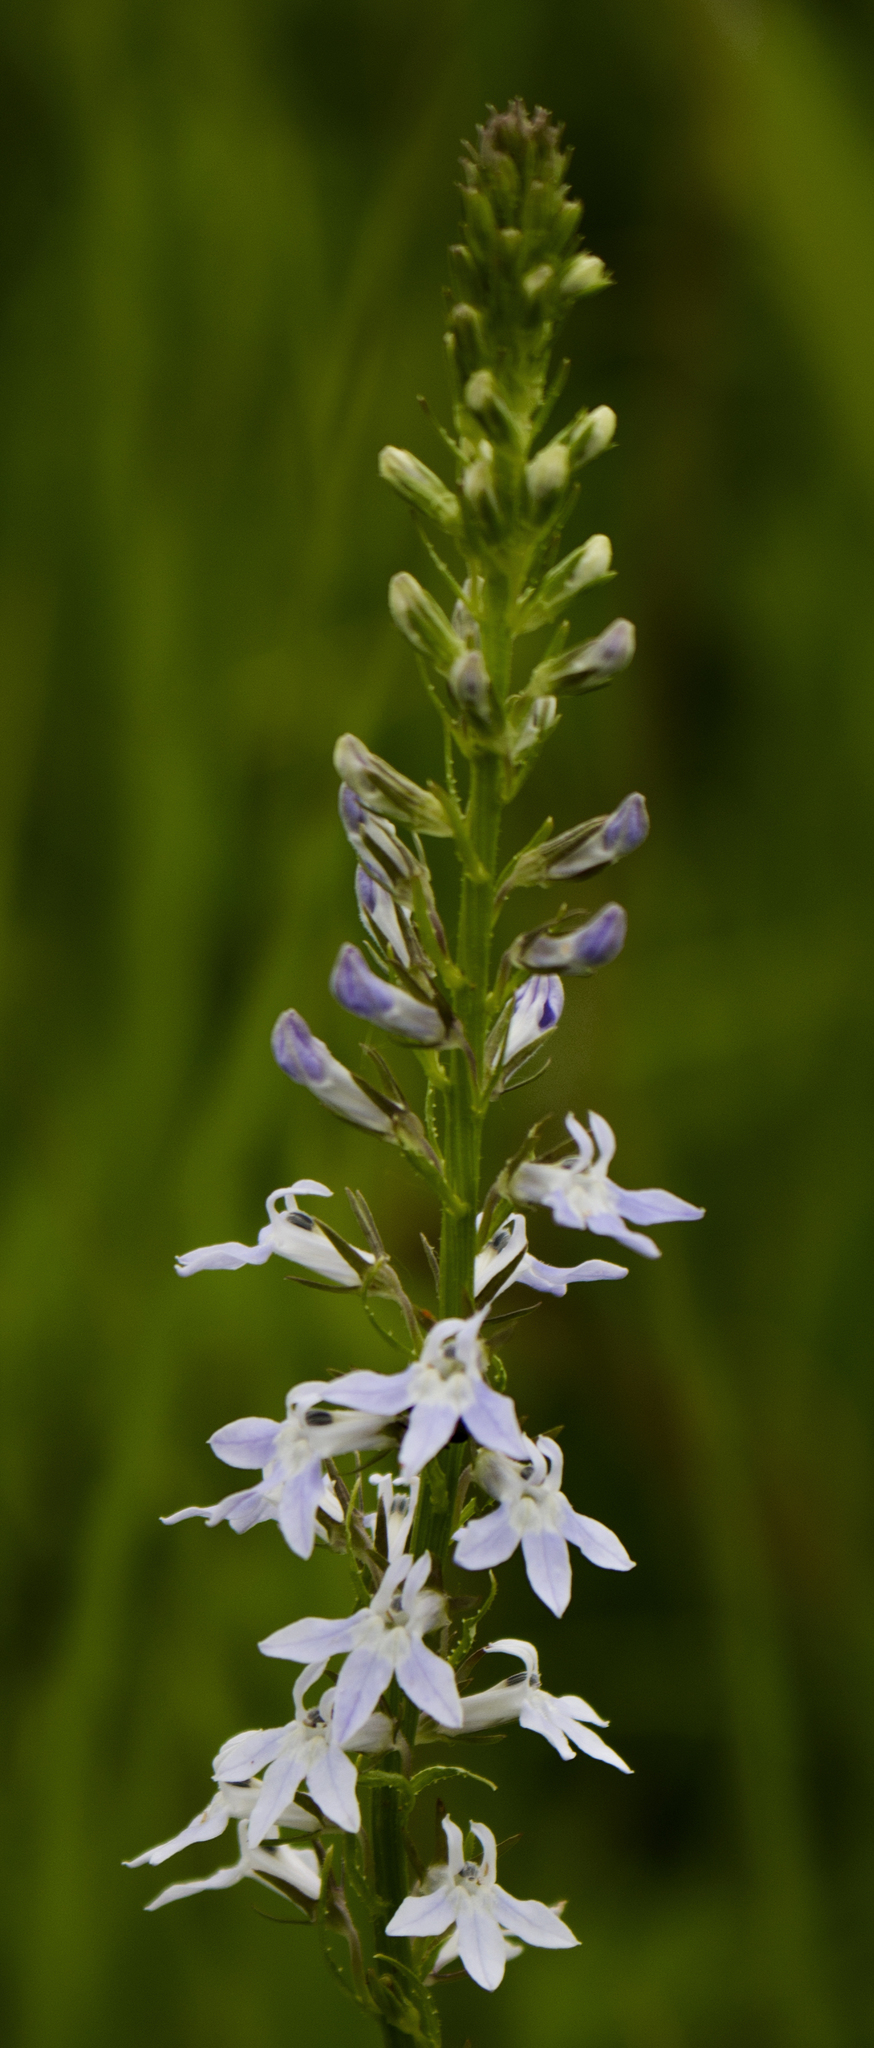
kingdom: Plantae
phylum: Tracheophyta
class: Magnoliopsida
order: Asterales
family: Campanulaceae
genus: Lobelia
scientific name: Lobelia spicata
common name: Pale-spike lobelia
